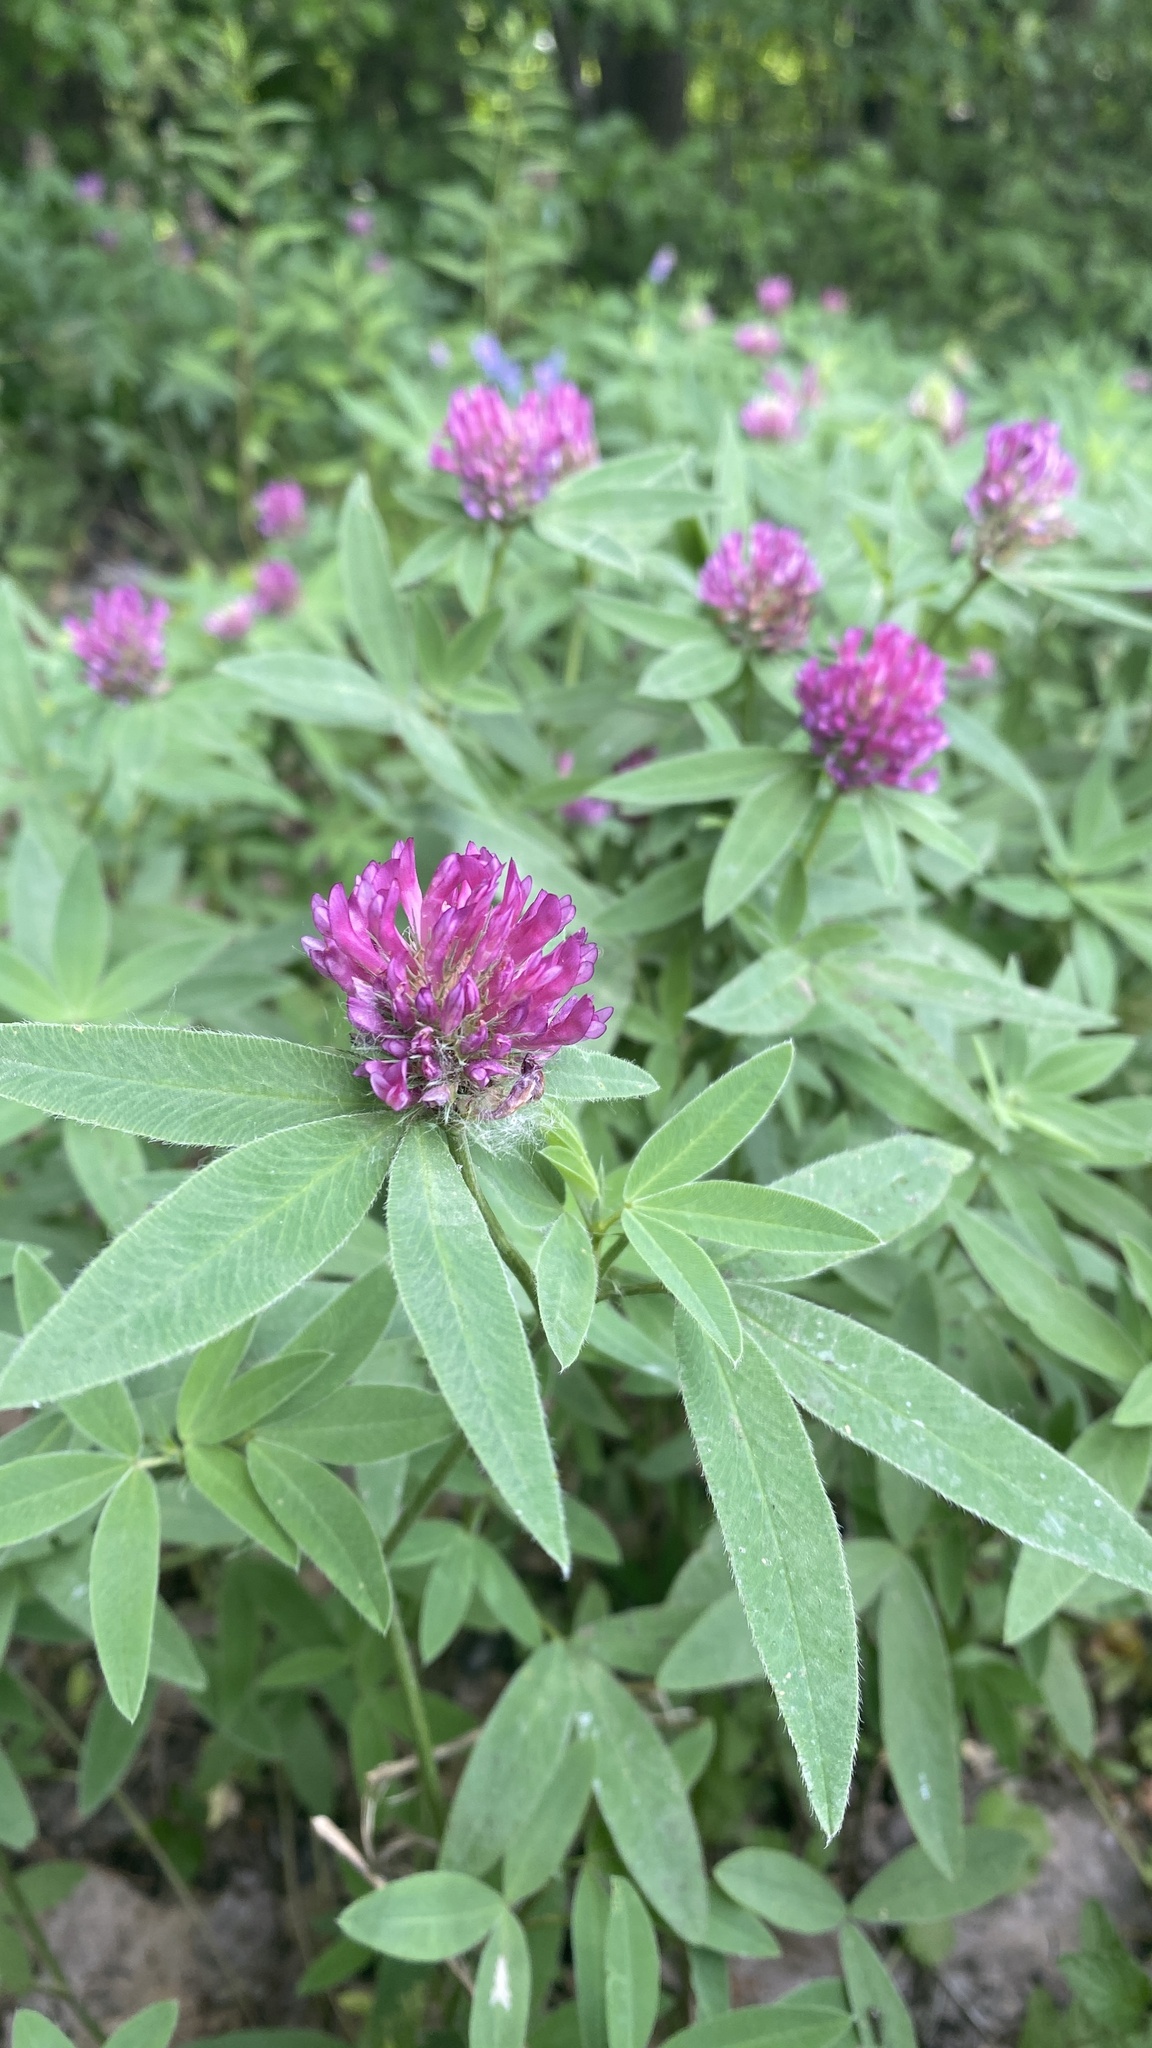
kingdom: Plantae
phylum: Tracheophyta
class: Magnoliopsida
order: Fabales
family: Fabaceae
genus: Trifolium
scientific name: Trifolium medium
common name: Zigzag clover
